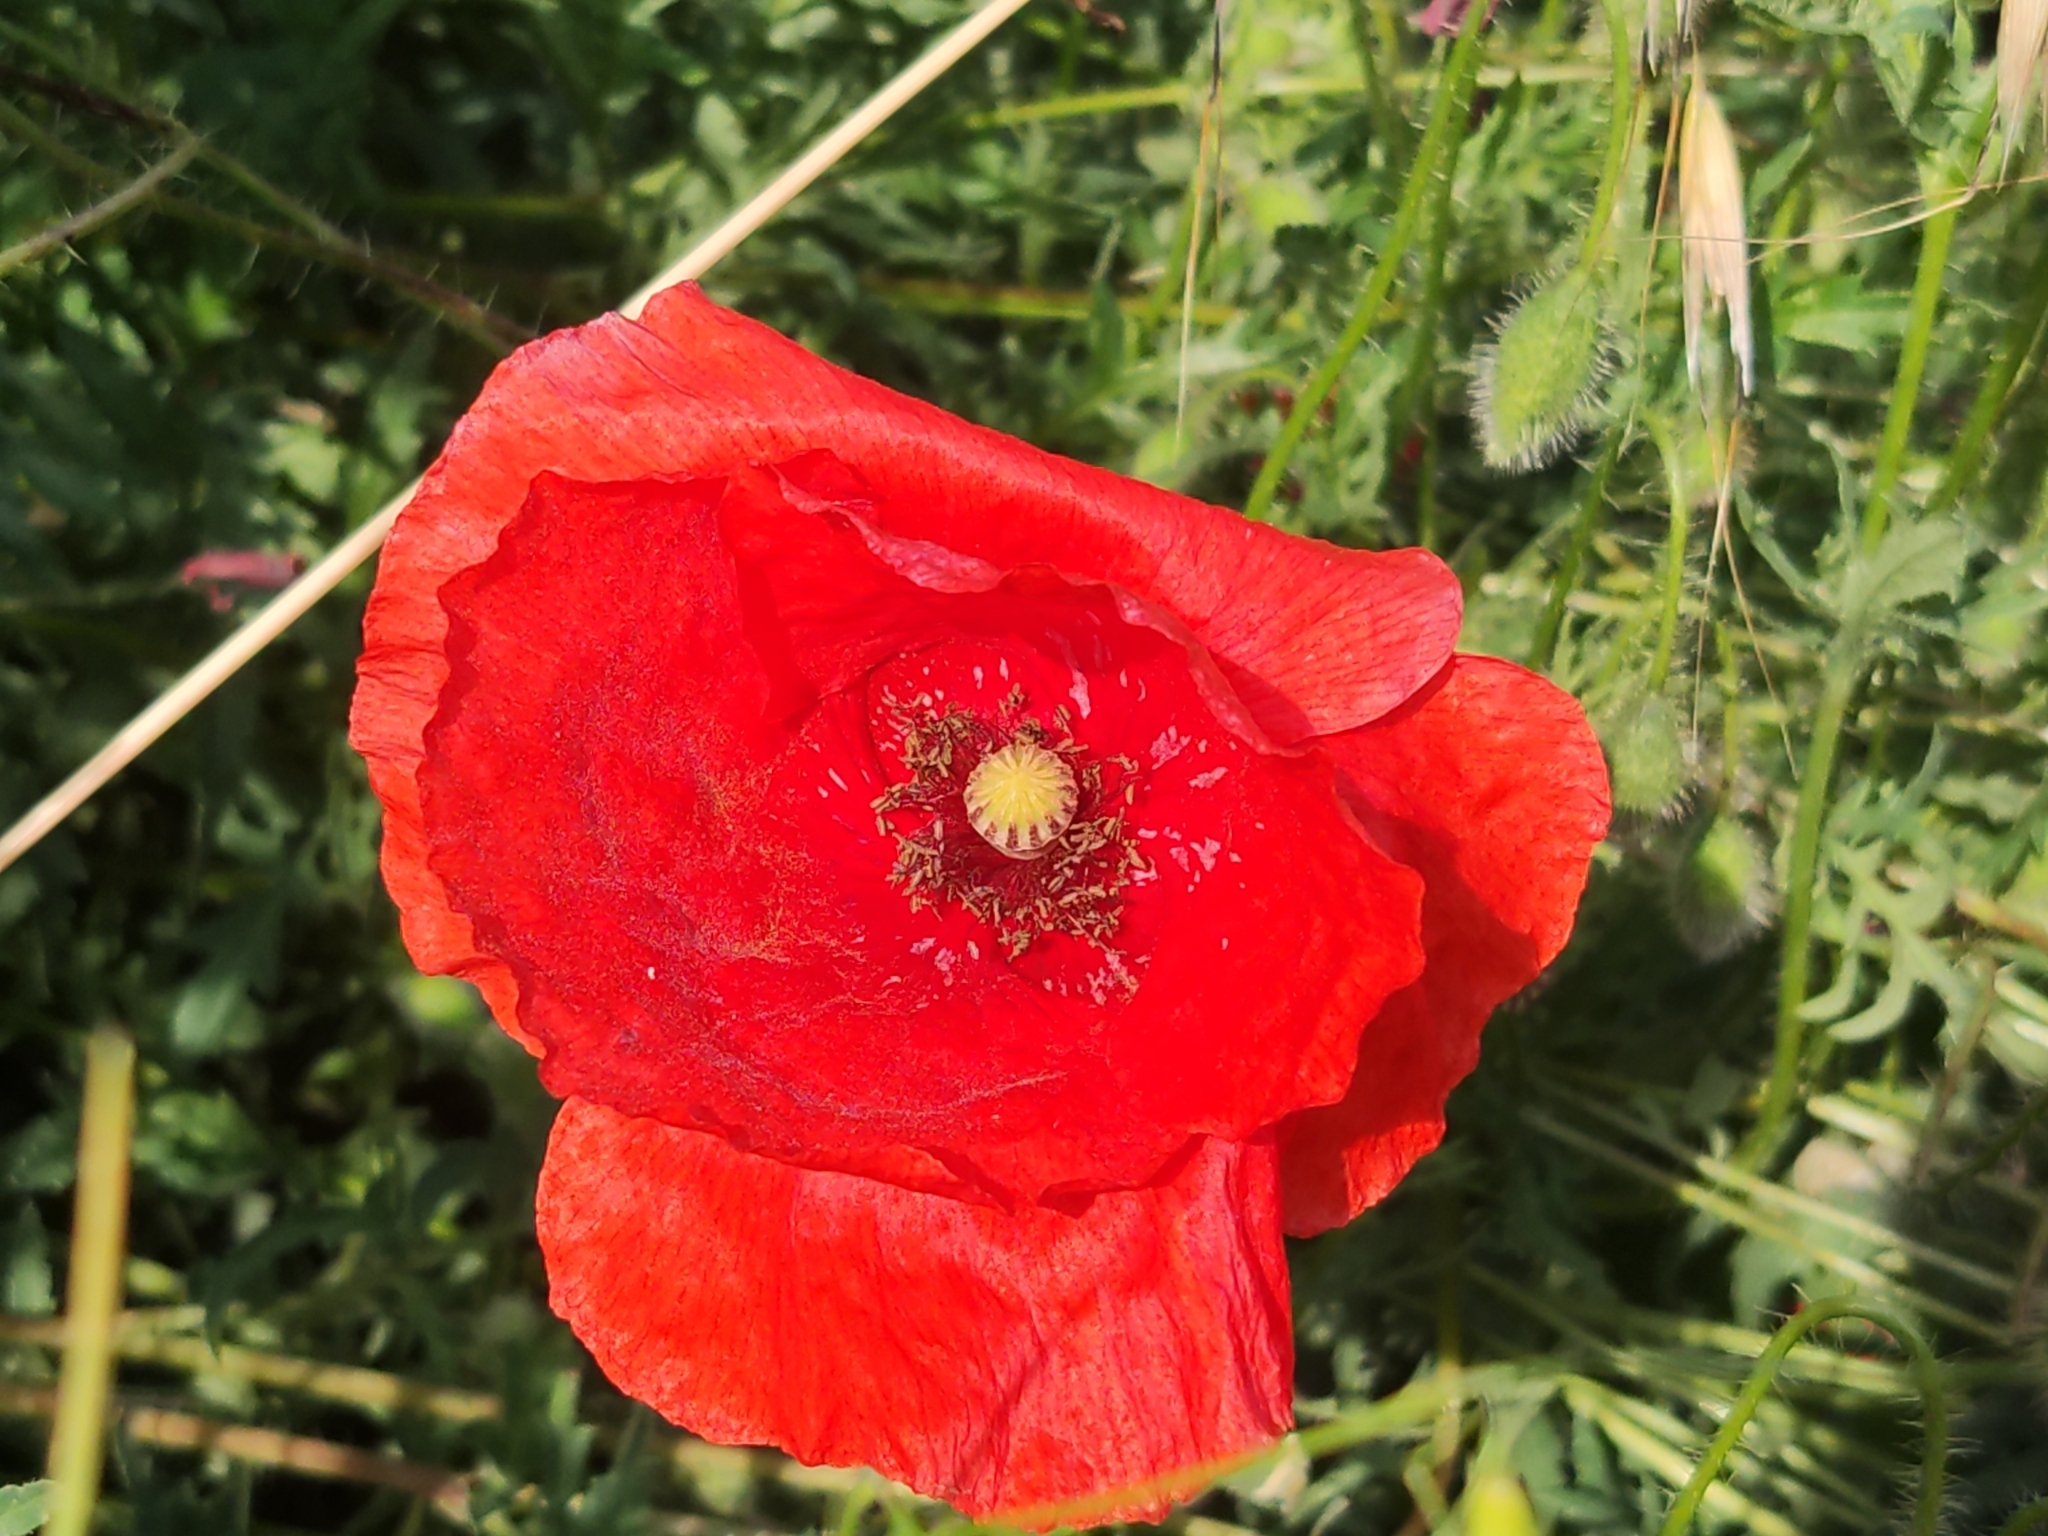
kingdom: Plantae
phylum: Tracheophyta
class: Magnoliopsida
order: Ranunculales
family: Papaveraceae
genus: Papaver
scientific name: Papaver rhoeas
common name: Corn poppy
